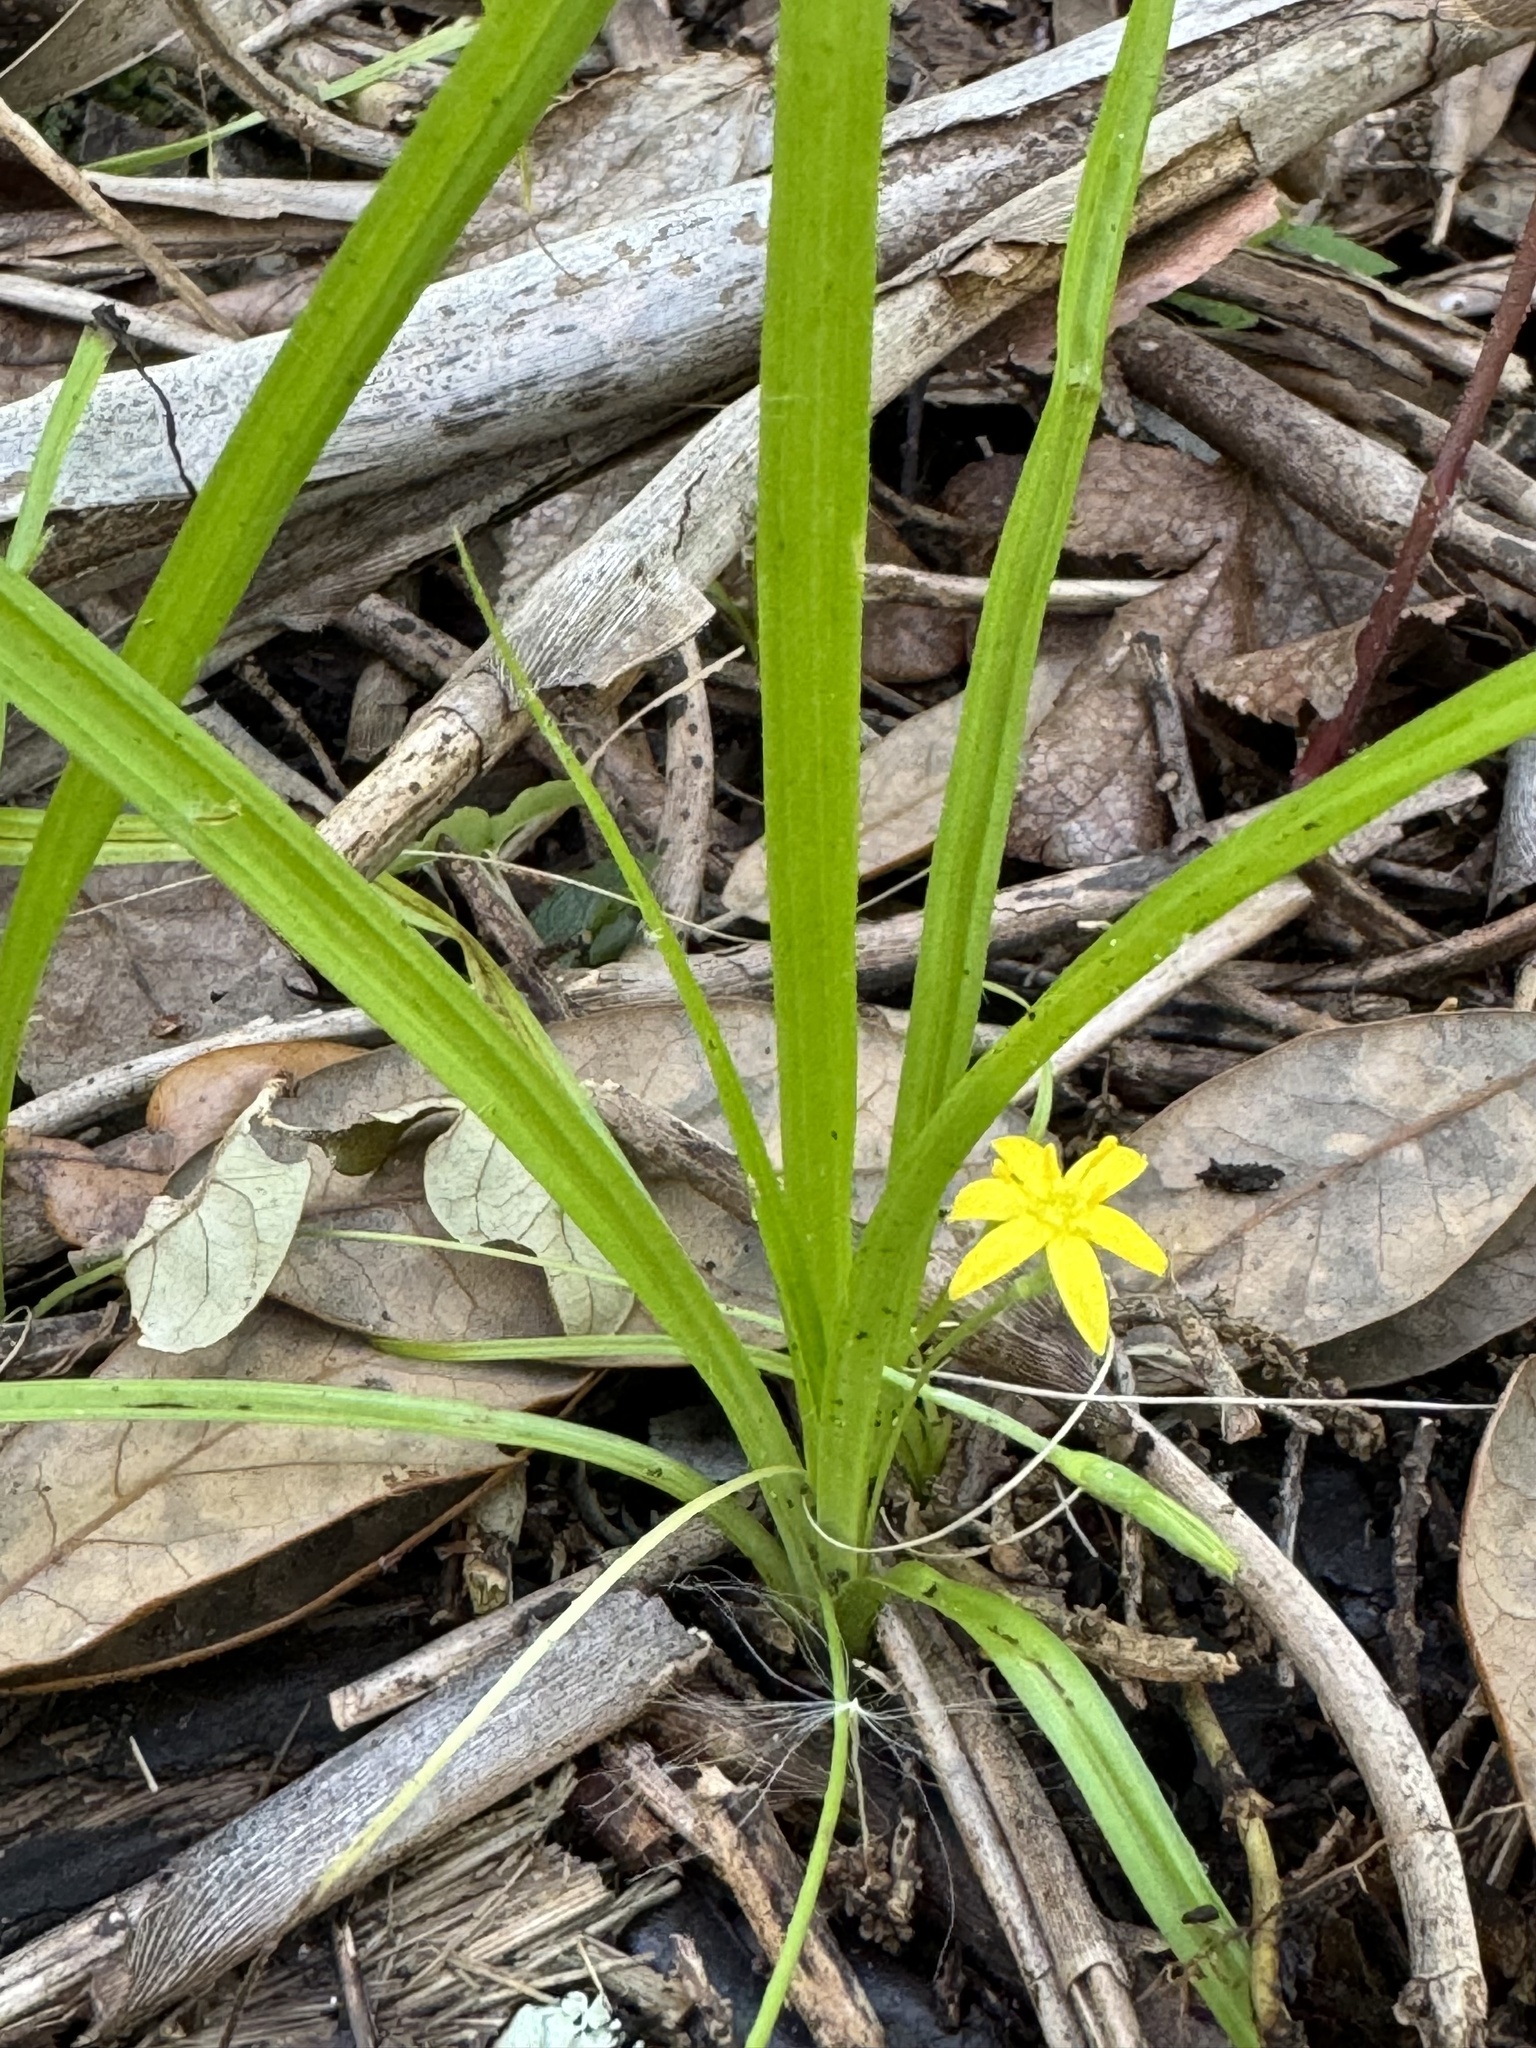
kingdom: Plantae
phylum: Tracheophyta
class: Liliopsida
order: Asparagales
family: Hypoxidaceae
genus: Hypoxis
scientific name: Hypoxis curtissii
